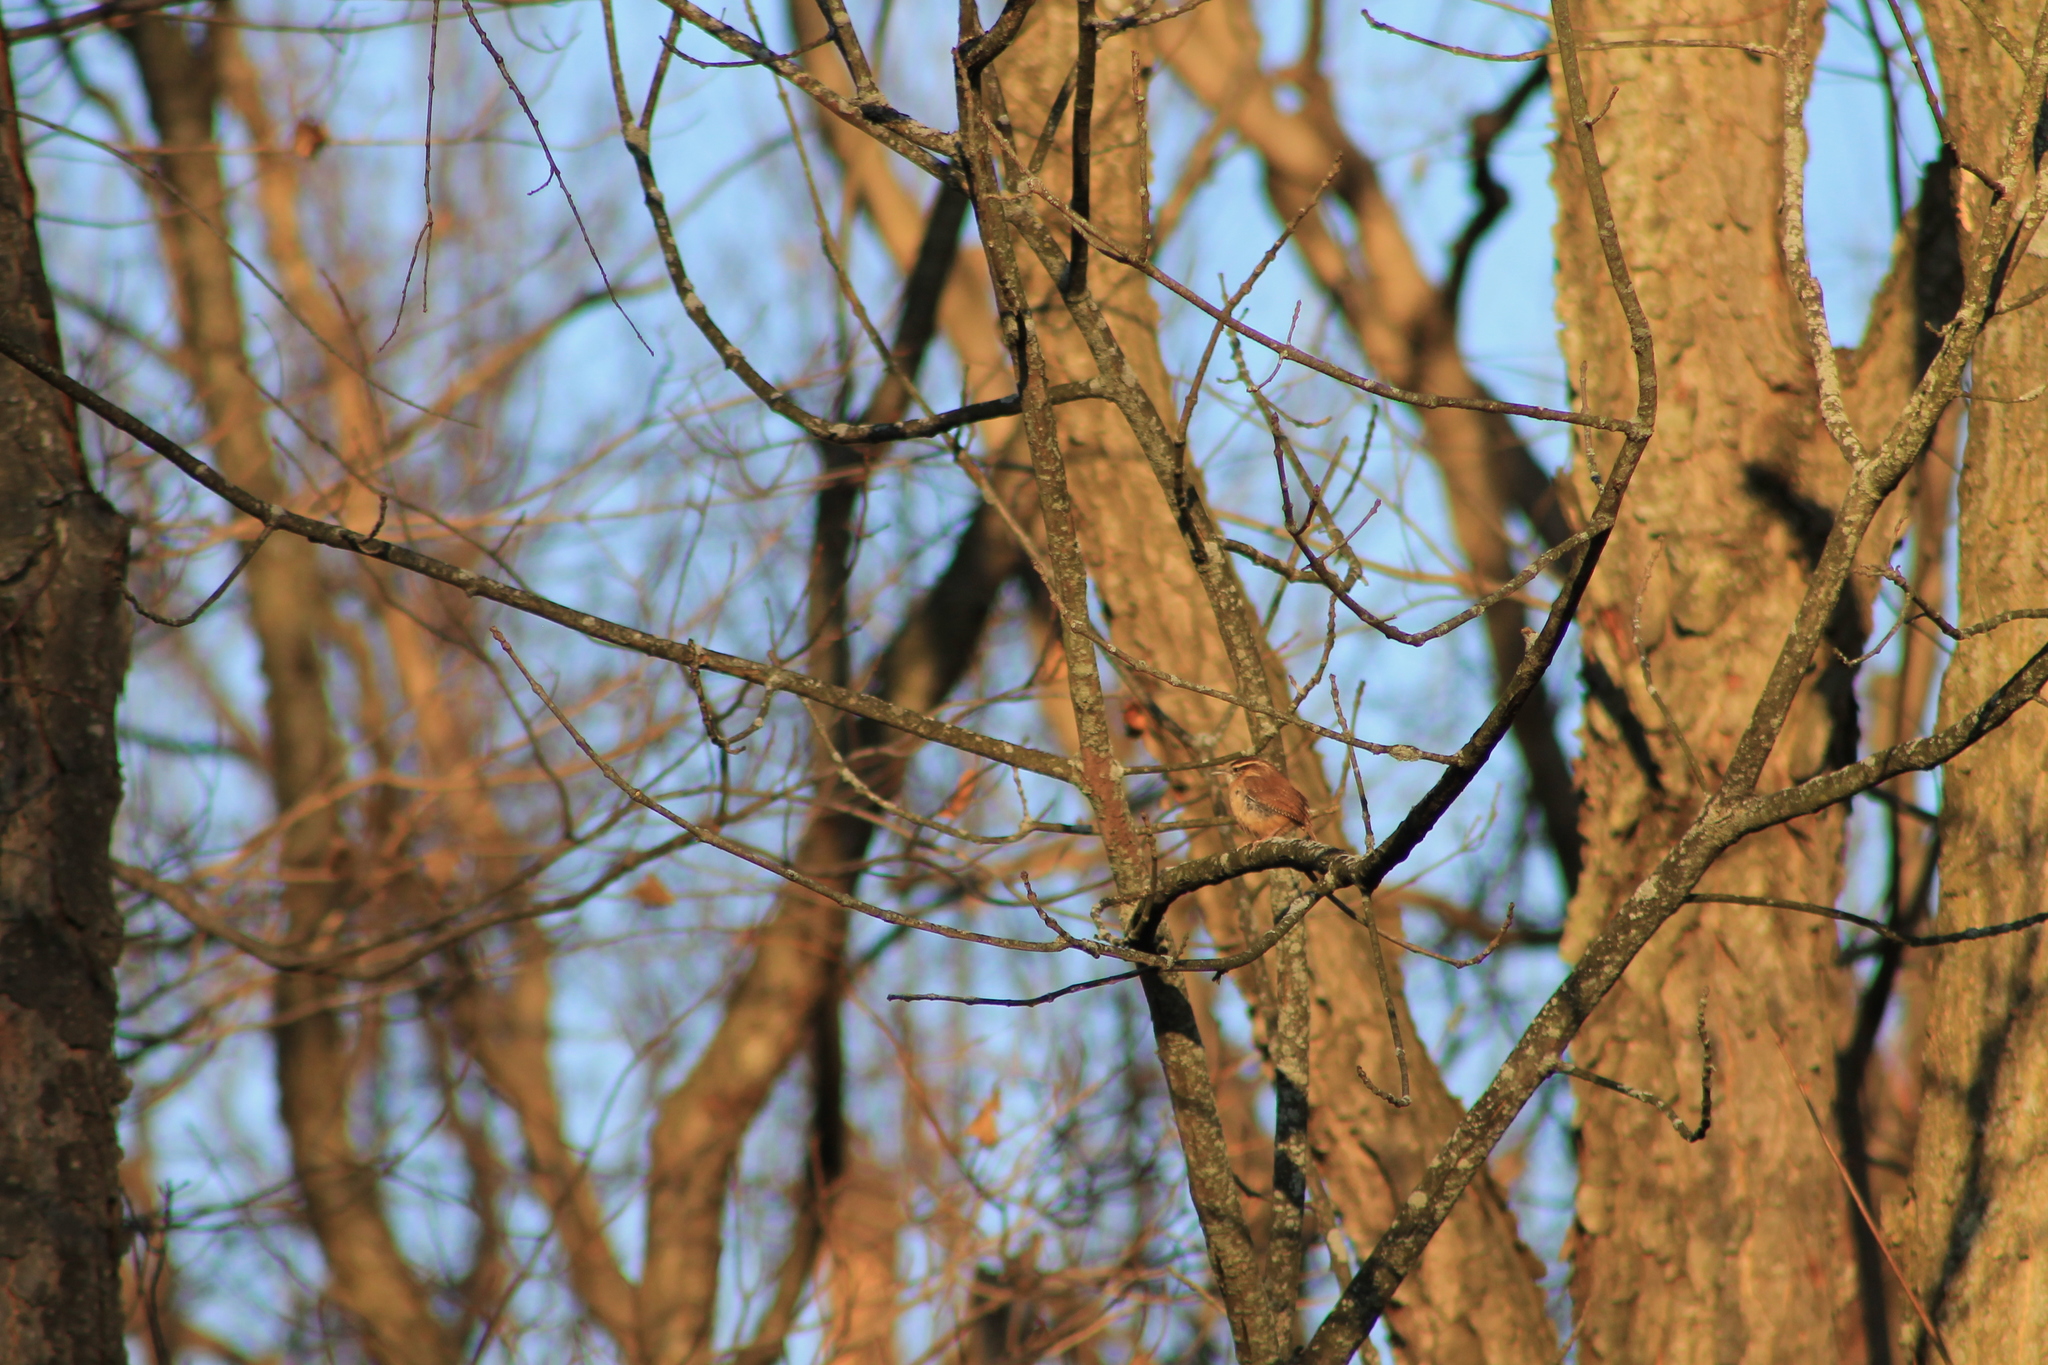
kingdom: Animalia
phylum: Chordata
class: Aves
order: Passeriformes
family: Troglodytidae
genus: Thryothorus
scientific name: Thryothorus ludovicianus
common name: Carolina wren
